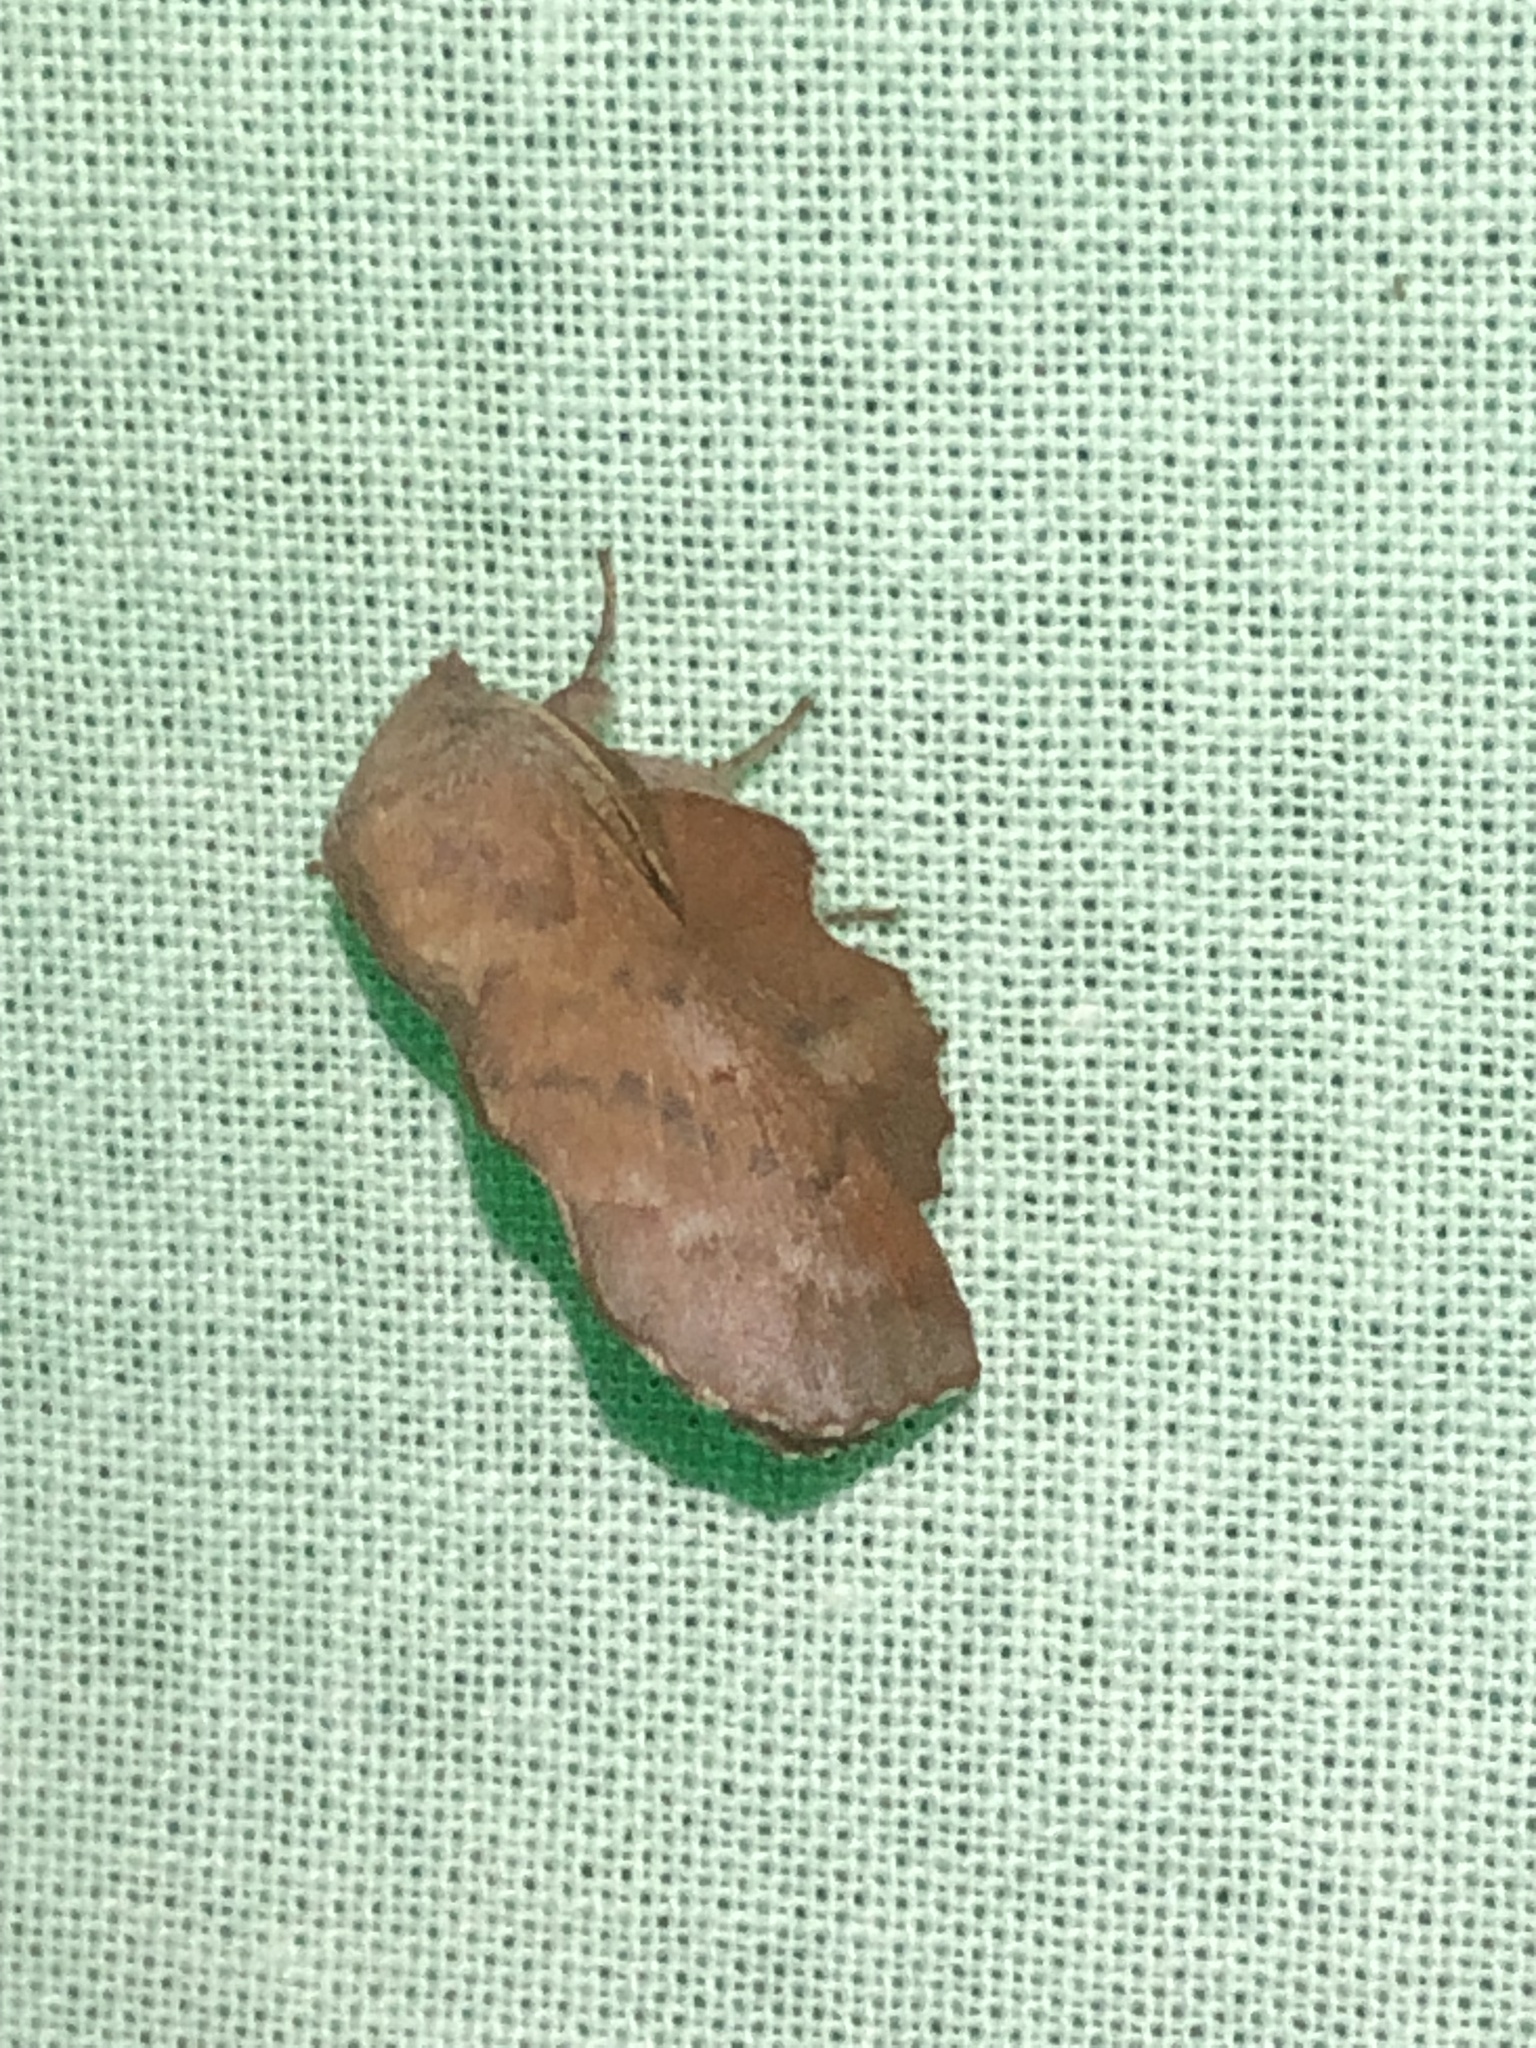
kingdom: Animalia
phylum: Arthropoda
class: Insecta
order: Lepidoptera
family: Lasiocampidae
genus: Phyllodesma
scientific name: Phyllodesma americana
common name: American lappet moth
